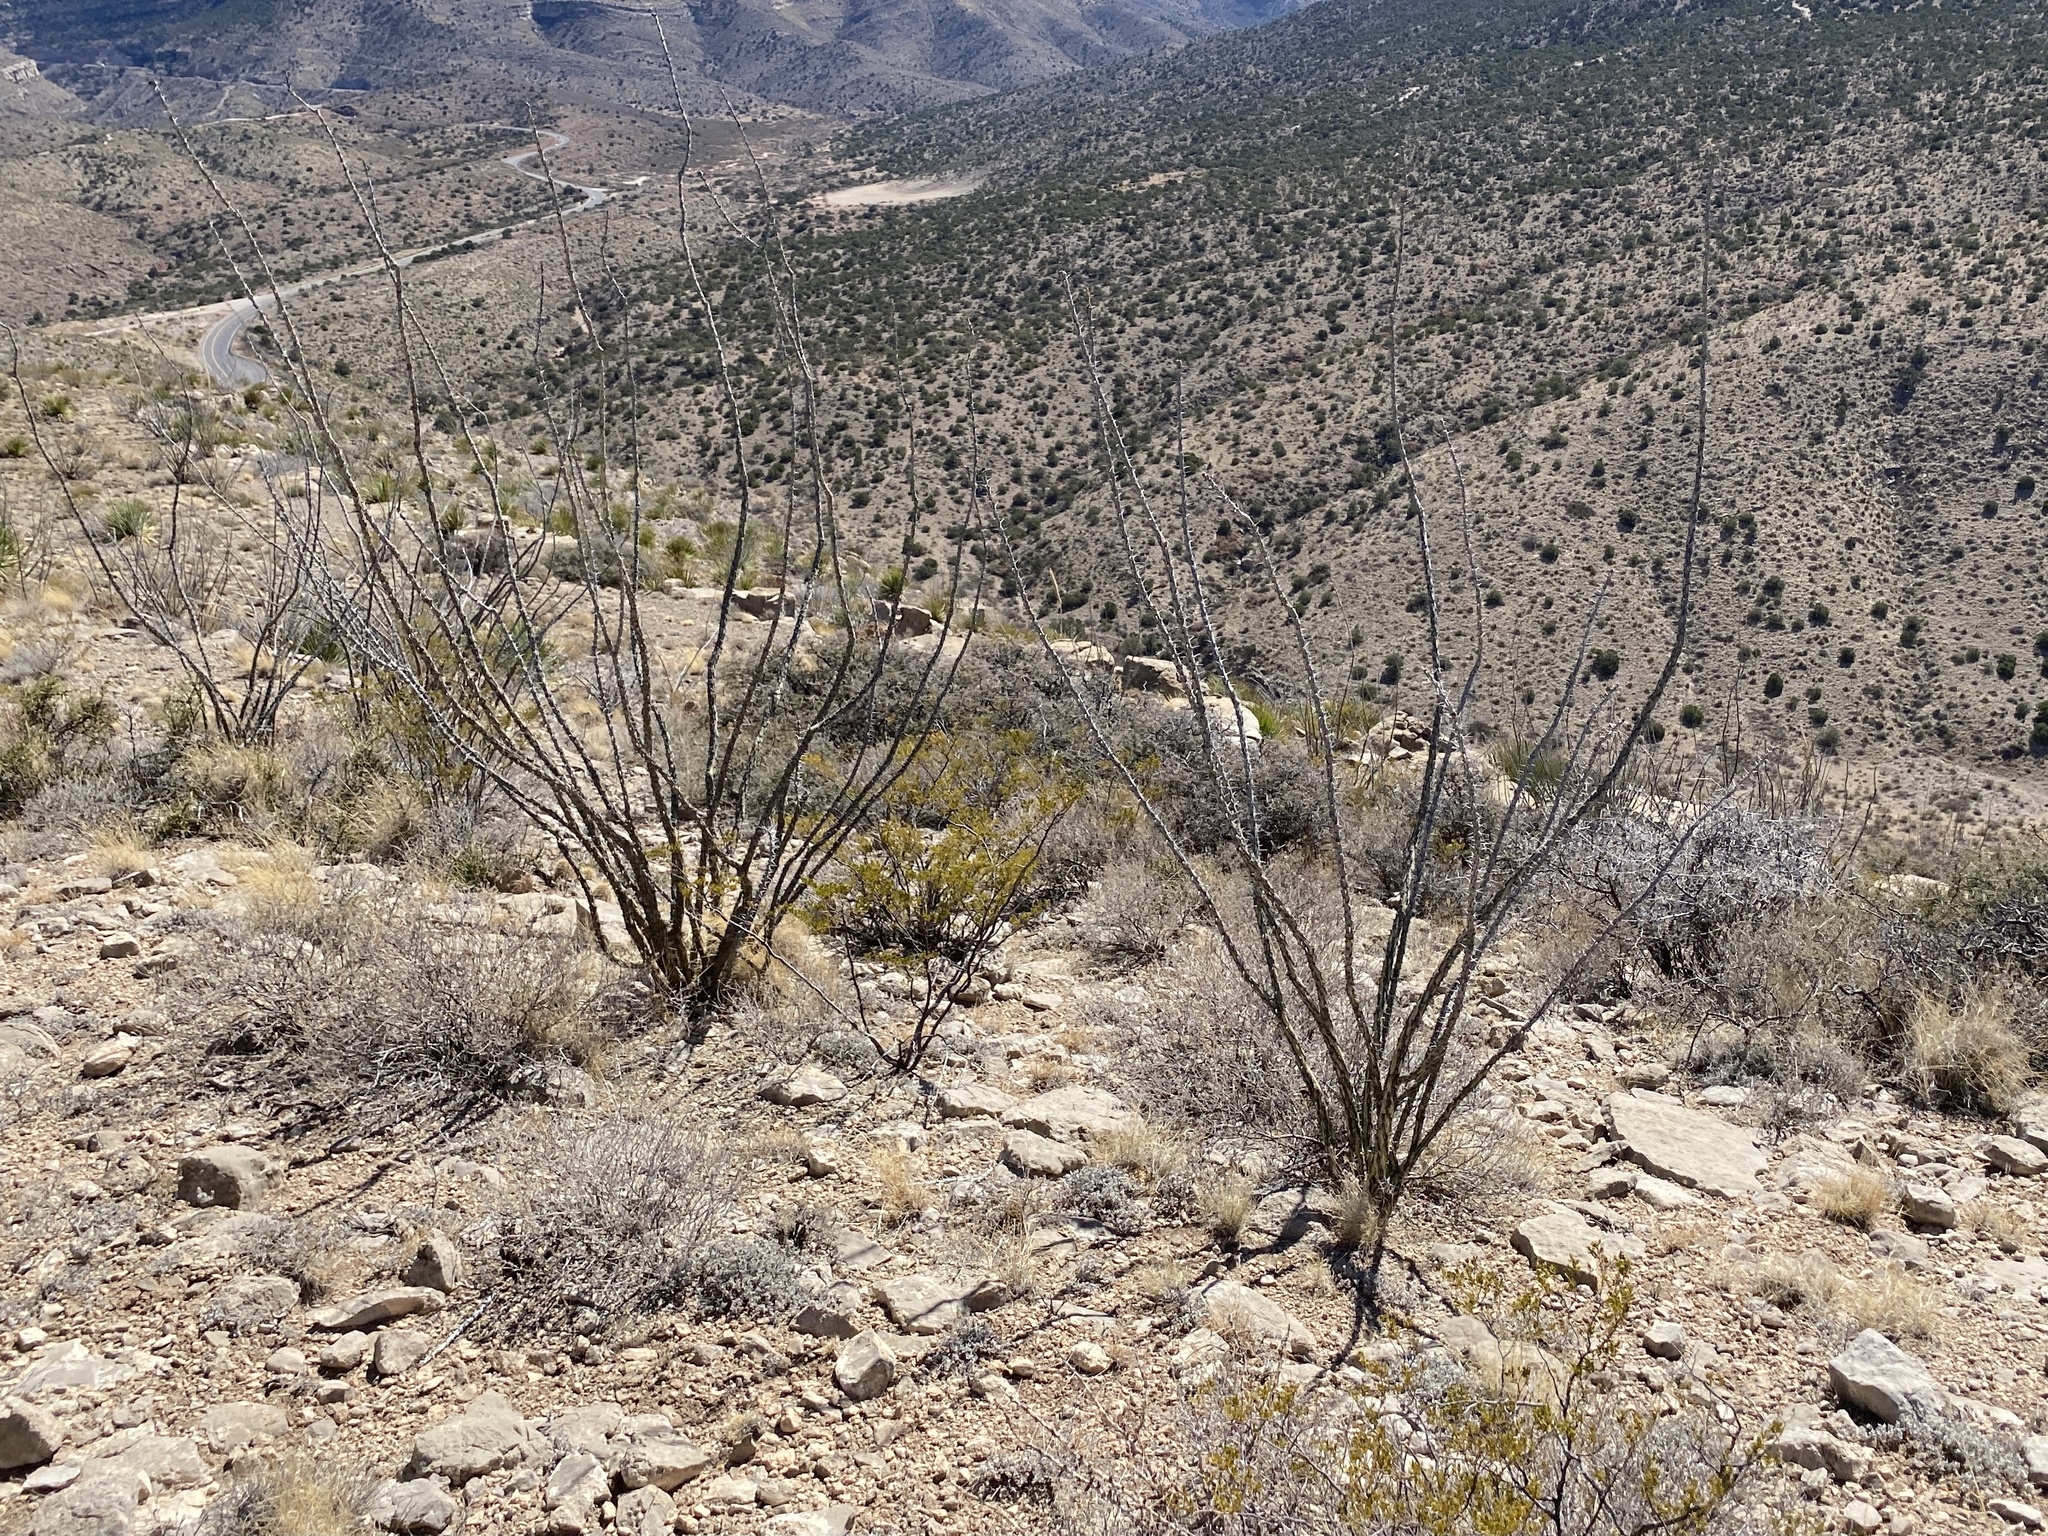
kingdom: Plantae
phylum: Tracheophyta
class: Magnoliopsida
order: Ericales
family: Fouquieriaceae
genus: Fouquieria
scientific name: Fouquieria splendens
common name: Vine-cactus
